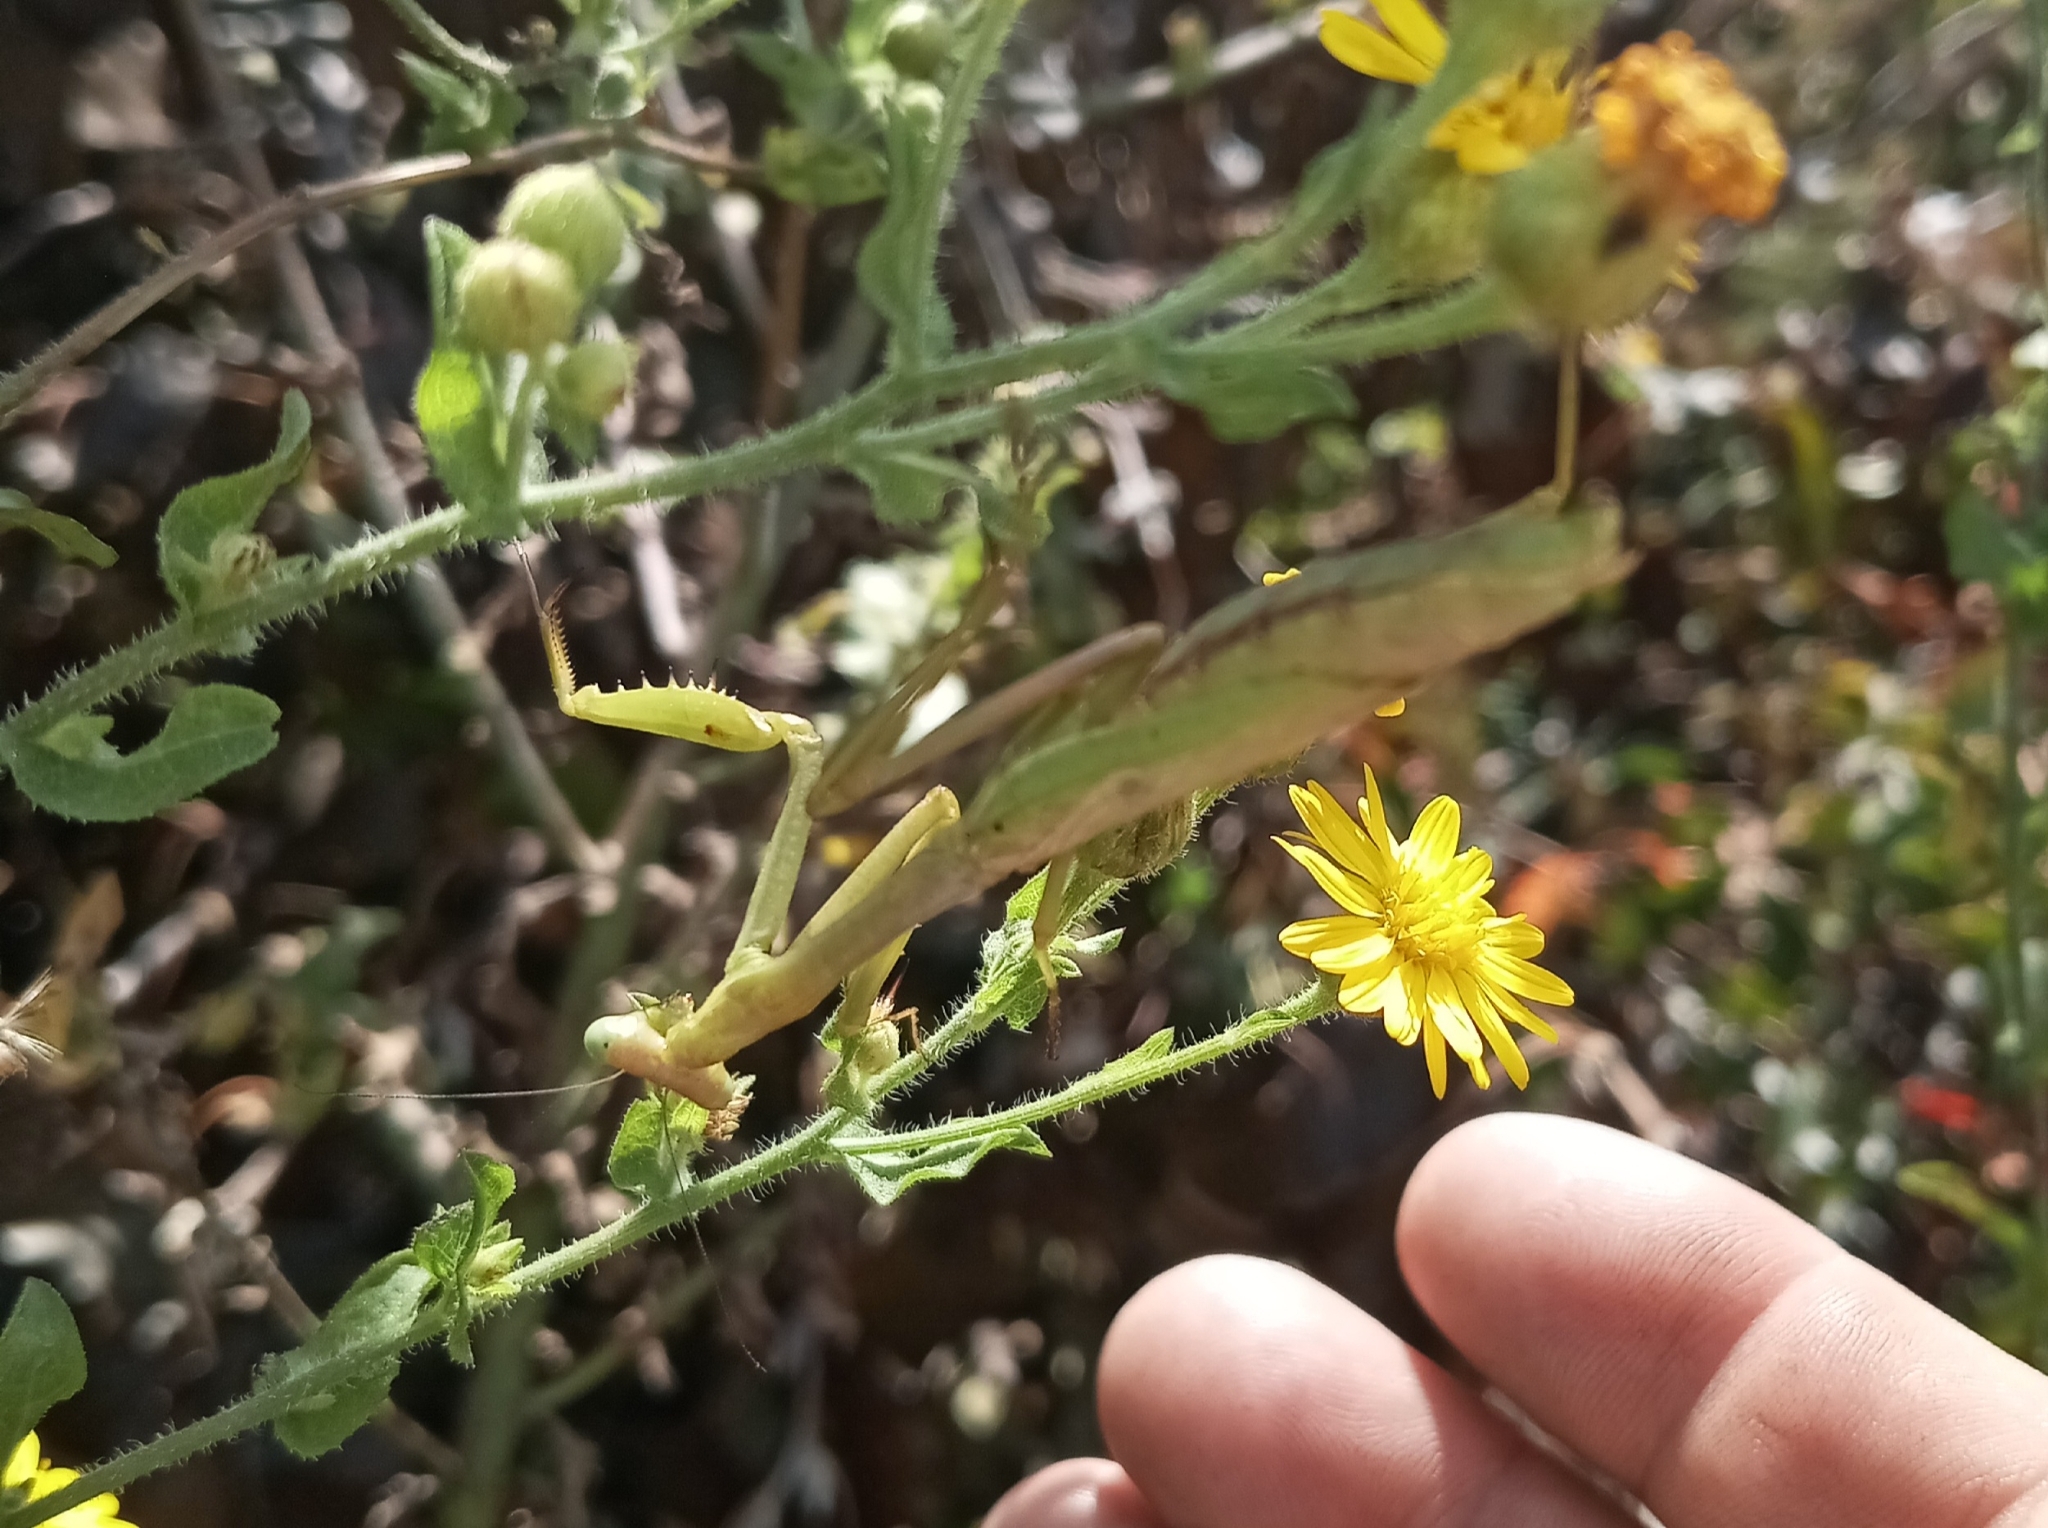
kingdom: Animalia
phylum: Arthropoda
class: Insecta
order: Mantodea
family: Mantidae
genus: Stagmomantis
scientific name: Stagmomantis carolina
